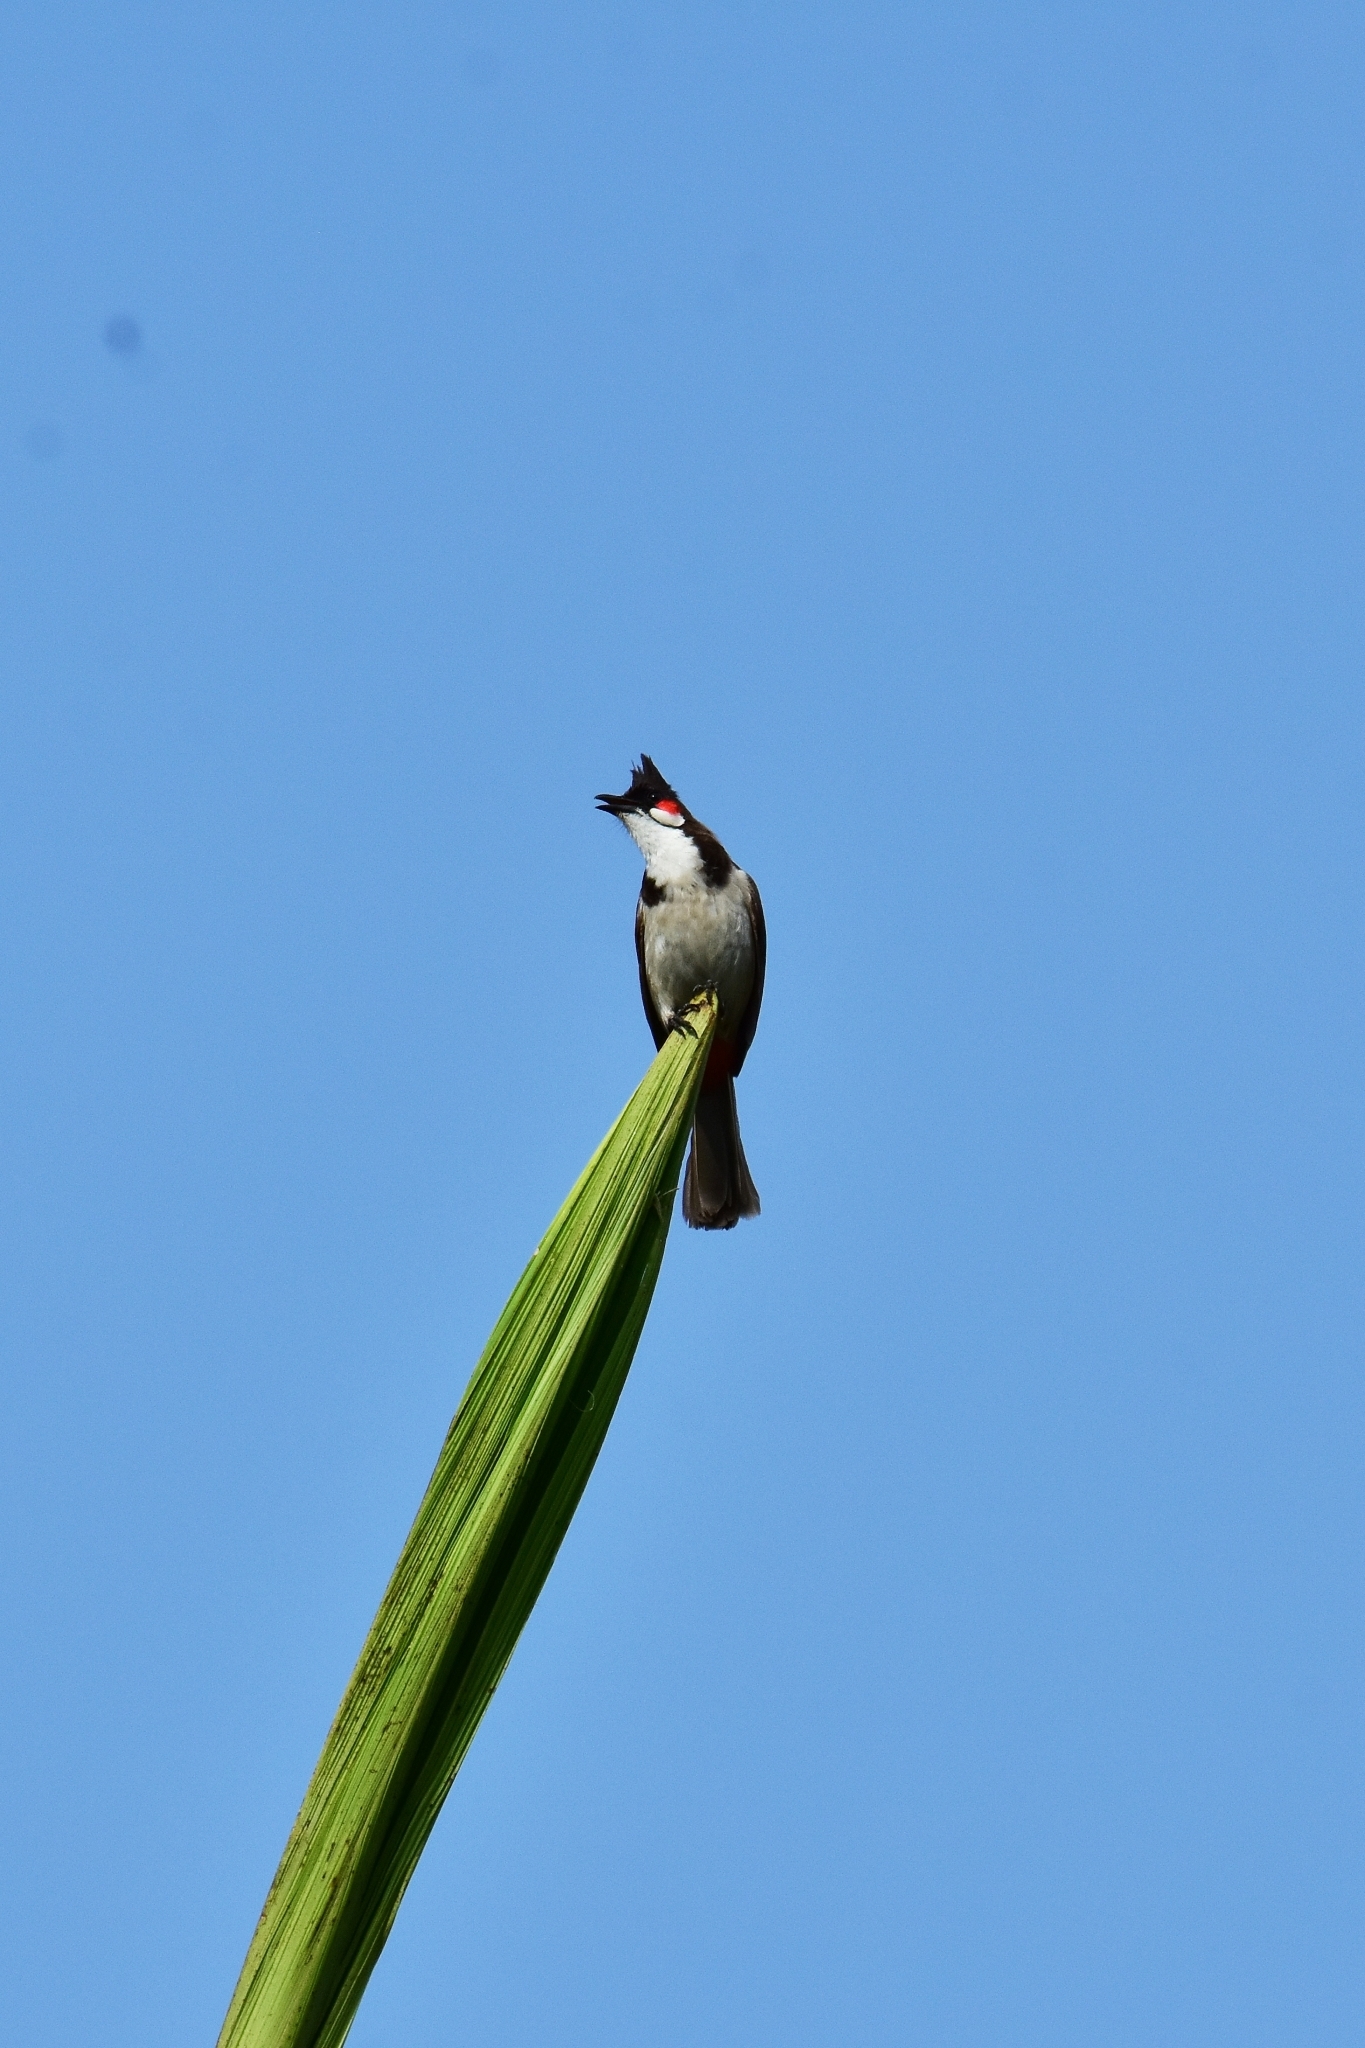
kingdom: Animalia
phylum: Chordata
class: Aves
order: Passeriformes
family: Pycnonotidae
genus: Pycnonotus
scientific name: Pycnonotus jocosus
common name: Red-whiskered bulbul
